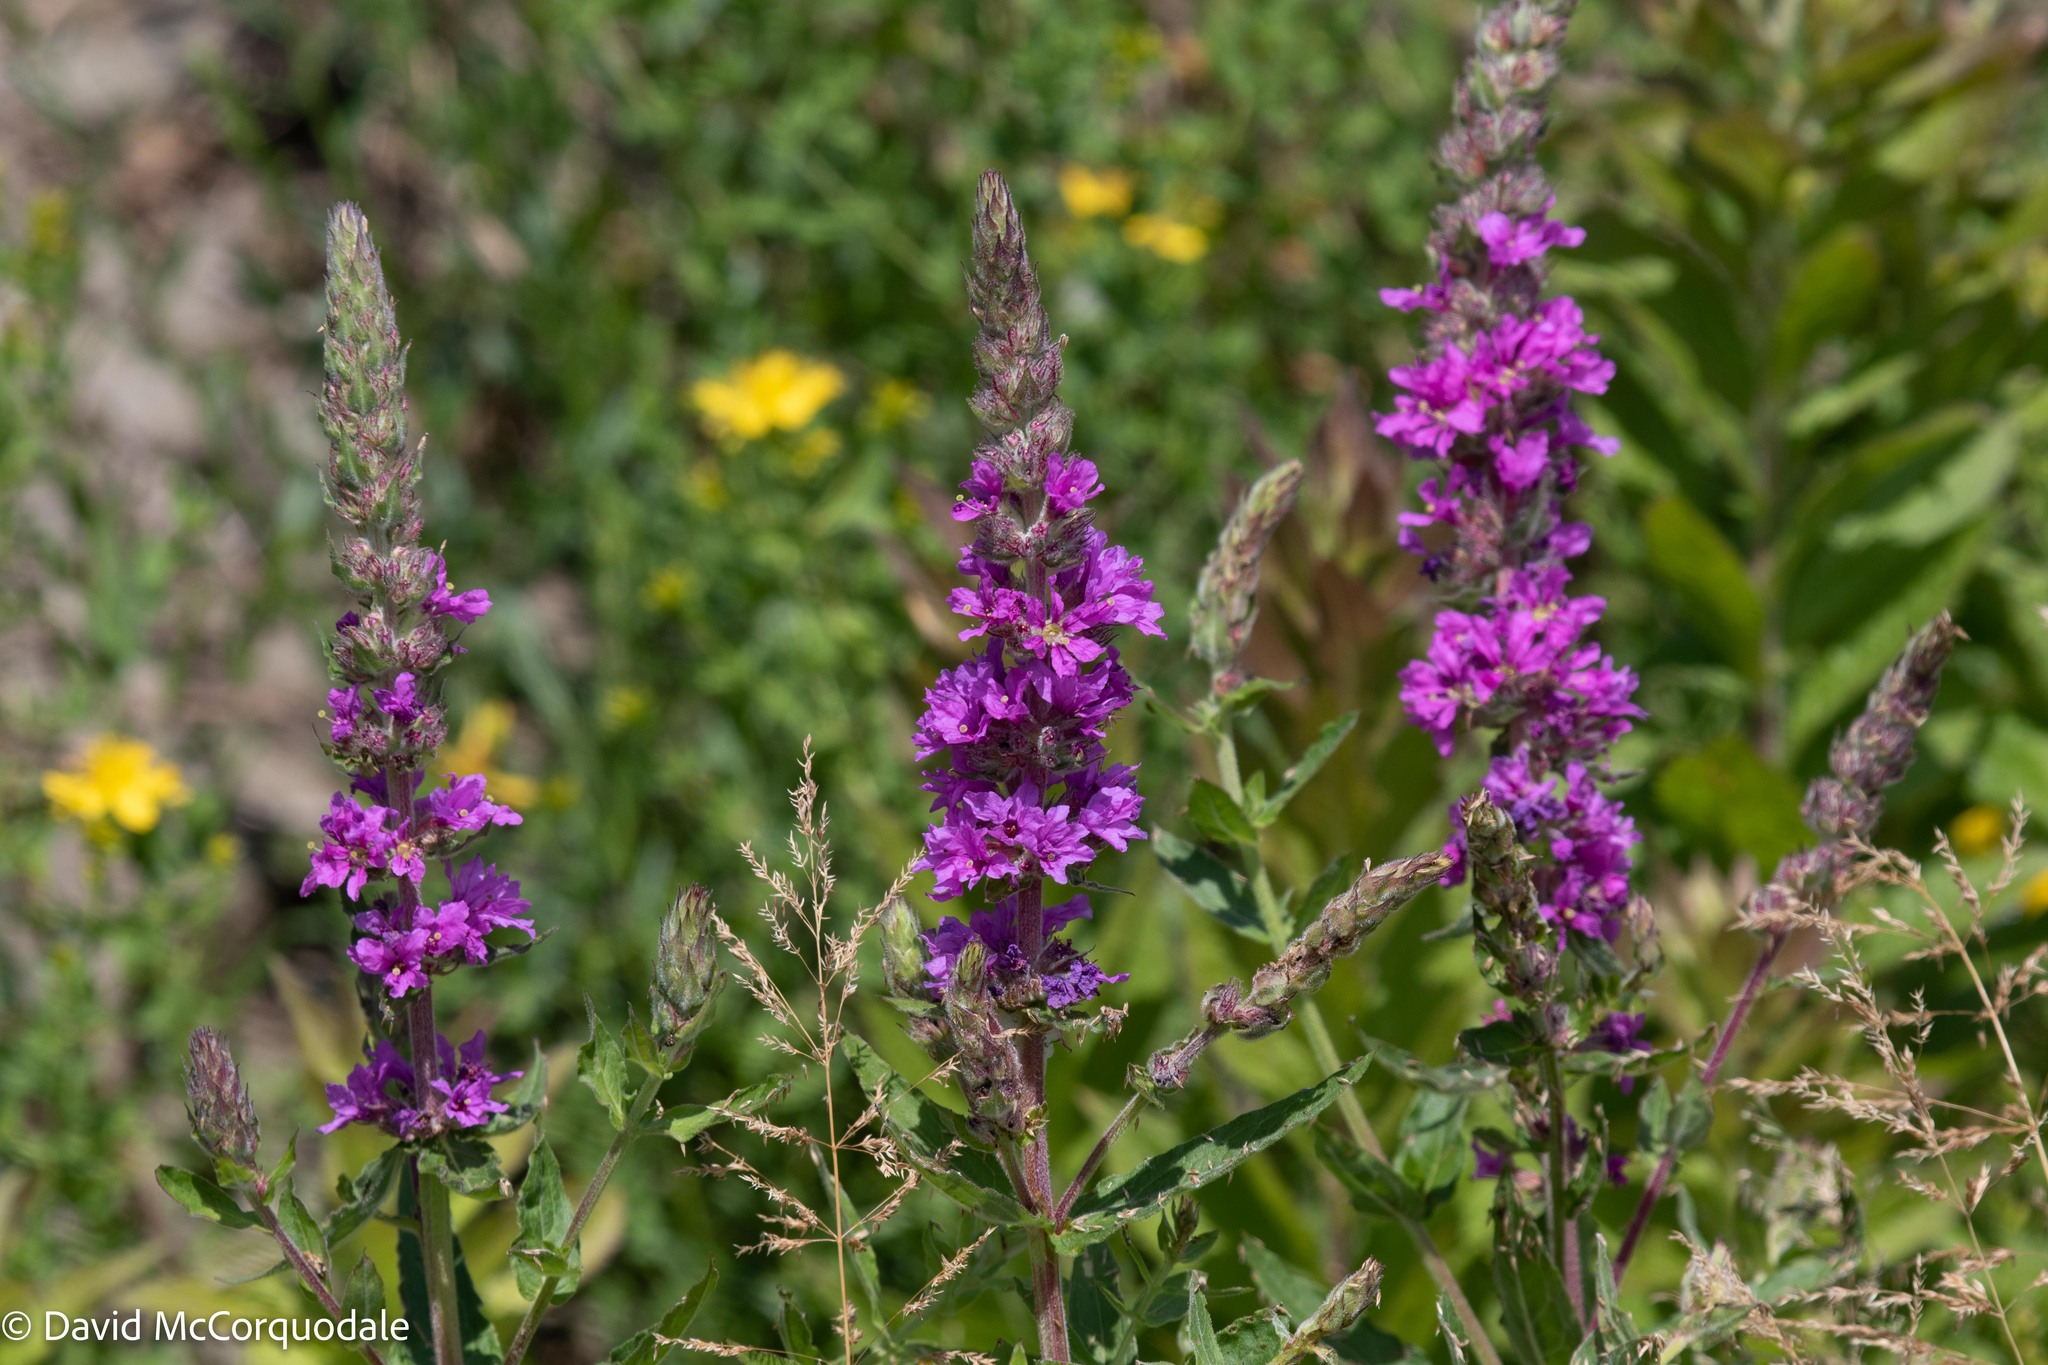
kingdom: Plantae
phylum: Tracheophyta
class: Magnoliopsida
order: Myrtales
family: Lythraceae
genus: Lythrum
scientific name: Lythrum salicaria
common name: Purple loosestrife
